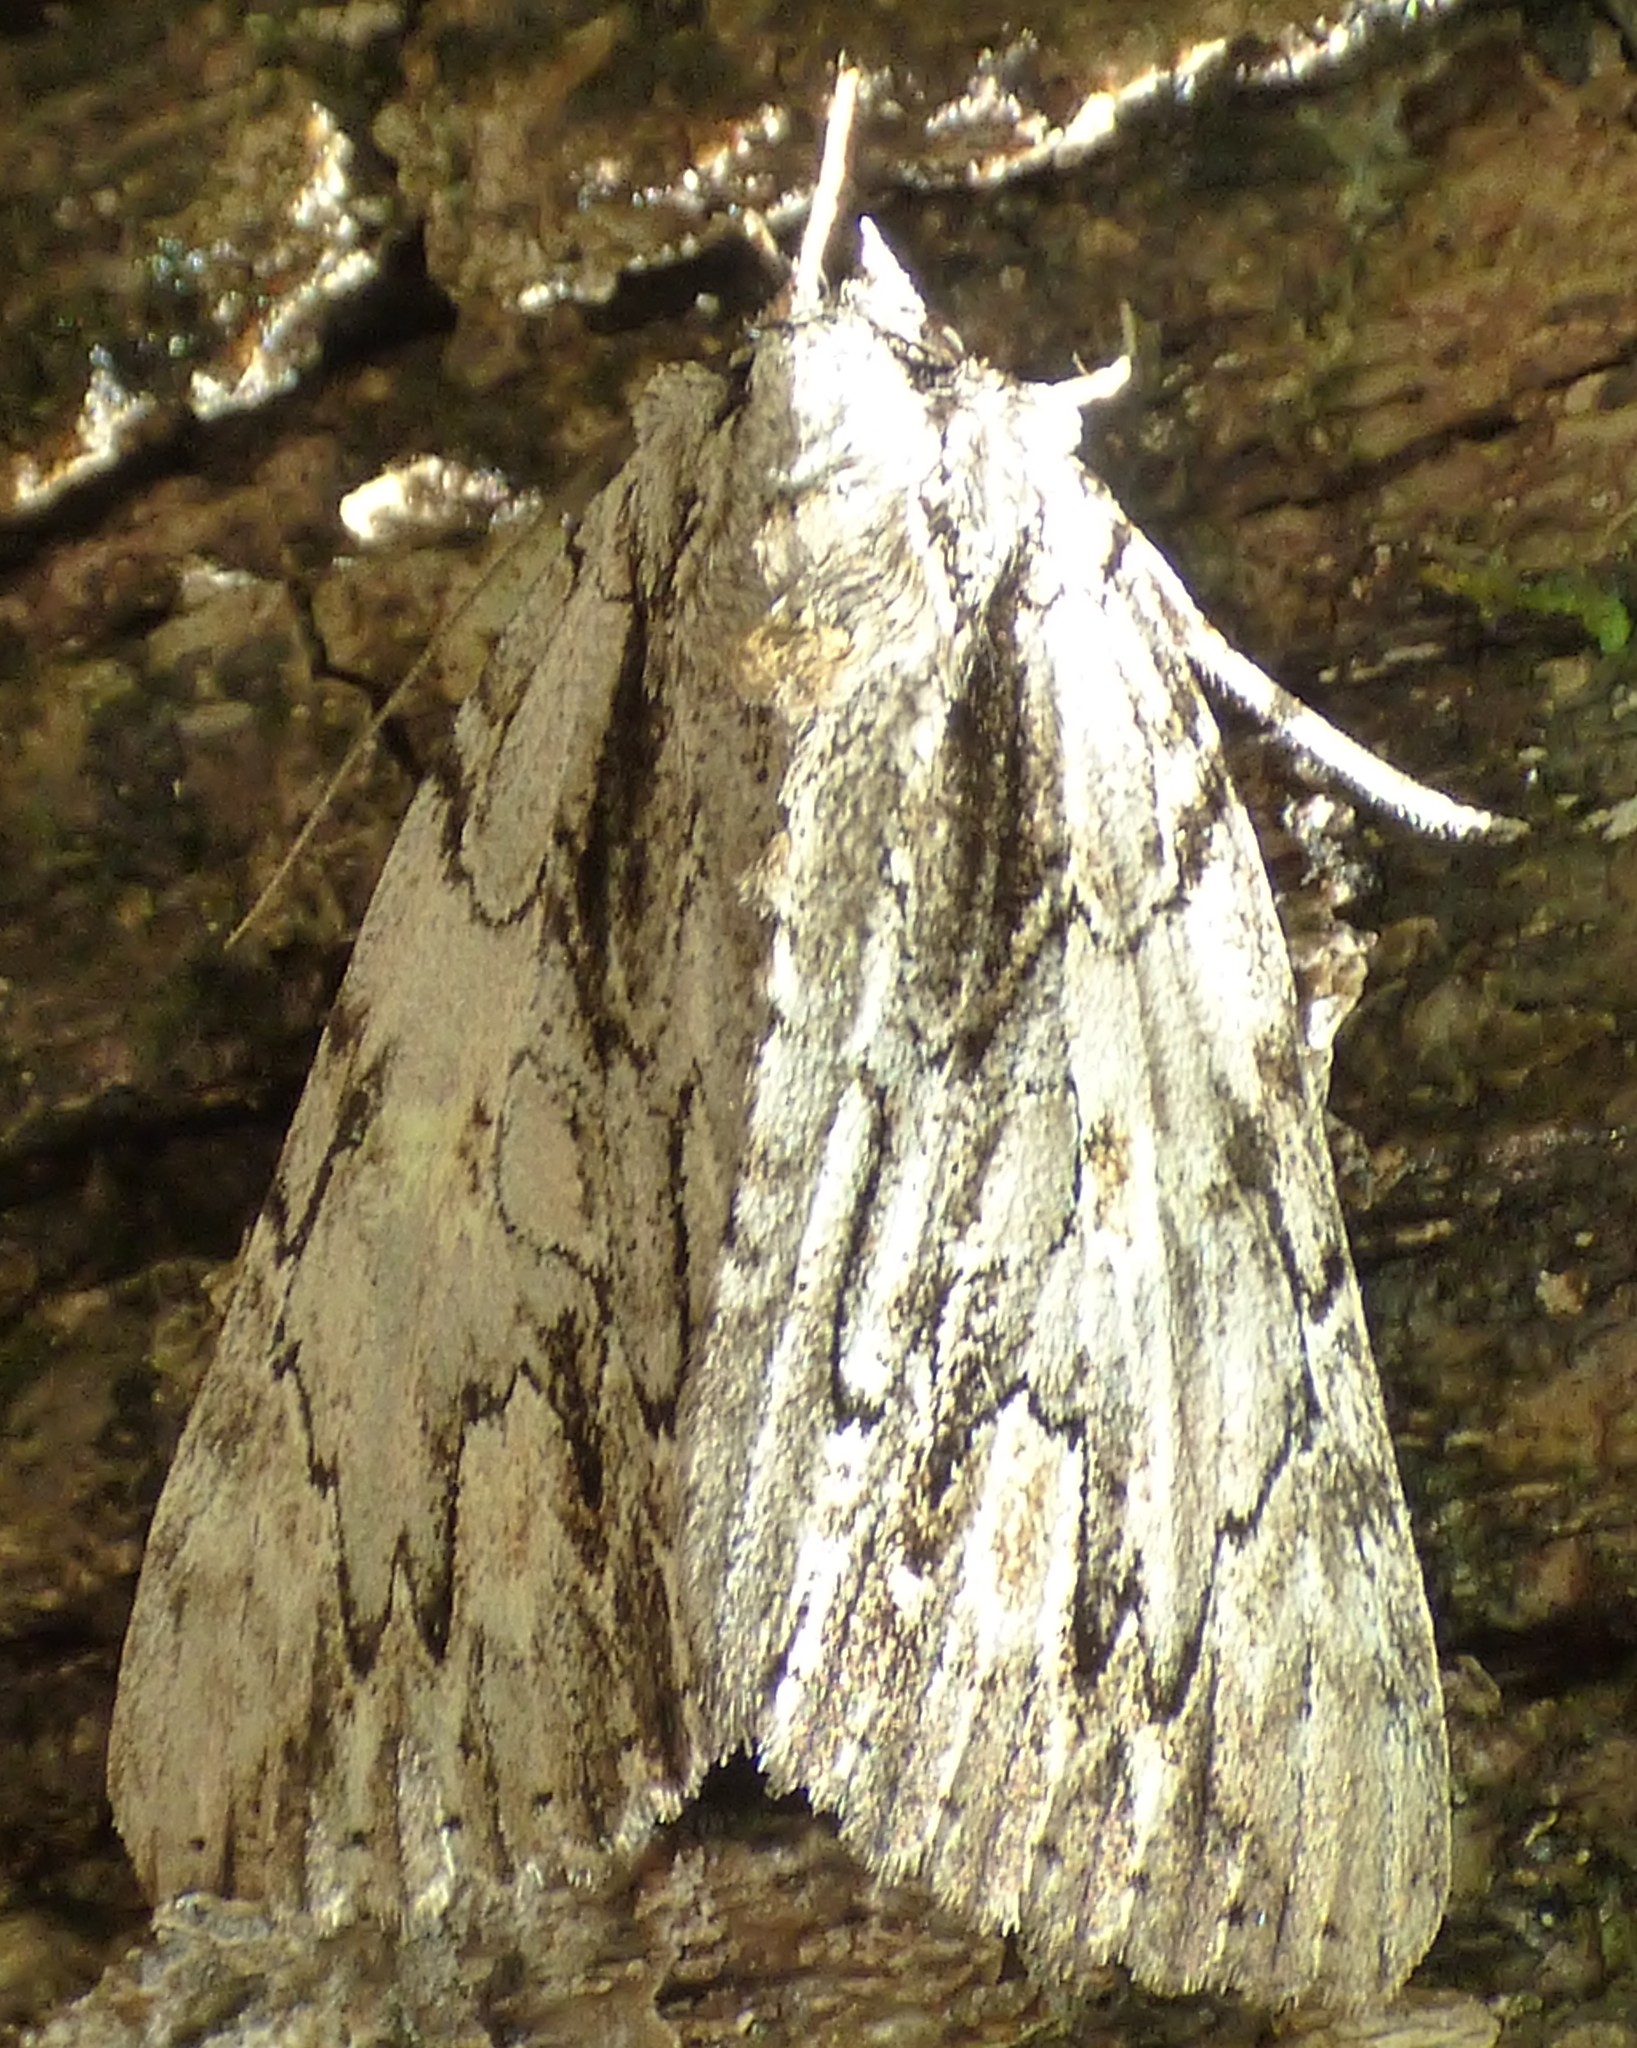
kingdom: Animalia
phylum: Arthropoda
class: Insecta
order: Lepidoptera
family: Erebidae
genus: Catocala
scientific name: Catocala coccinata
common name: Scarlet underwing
